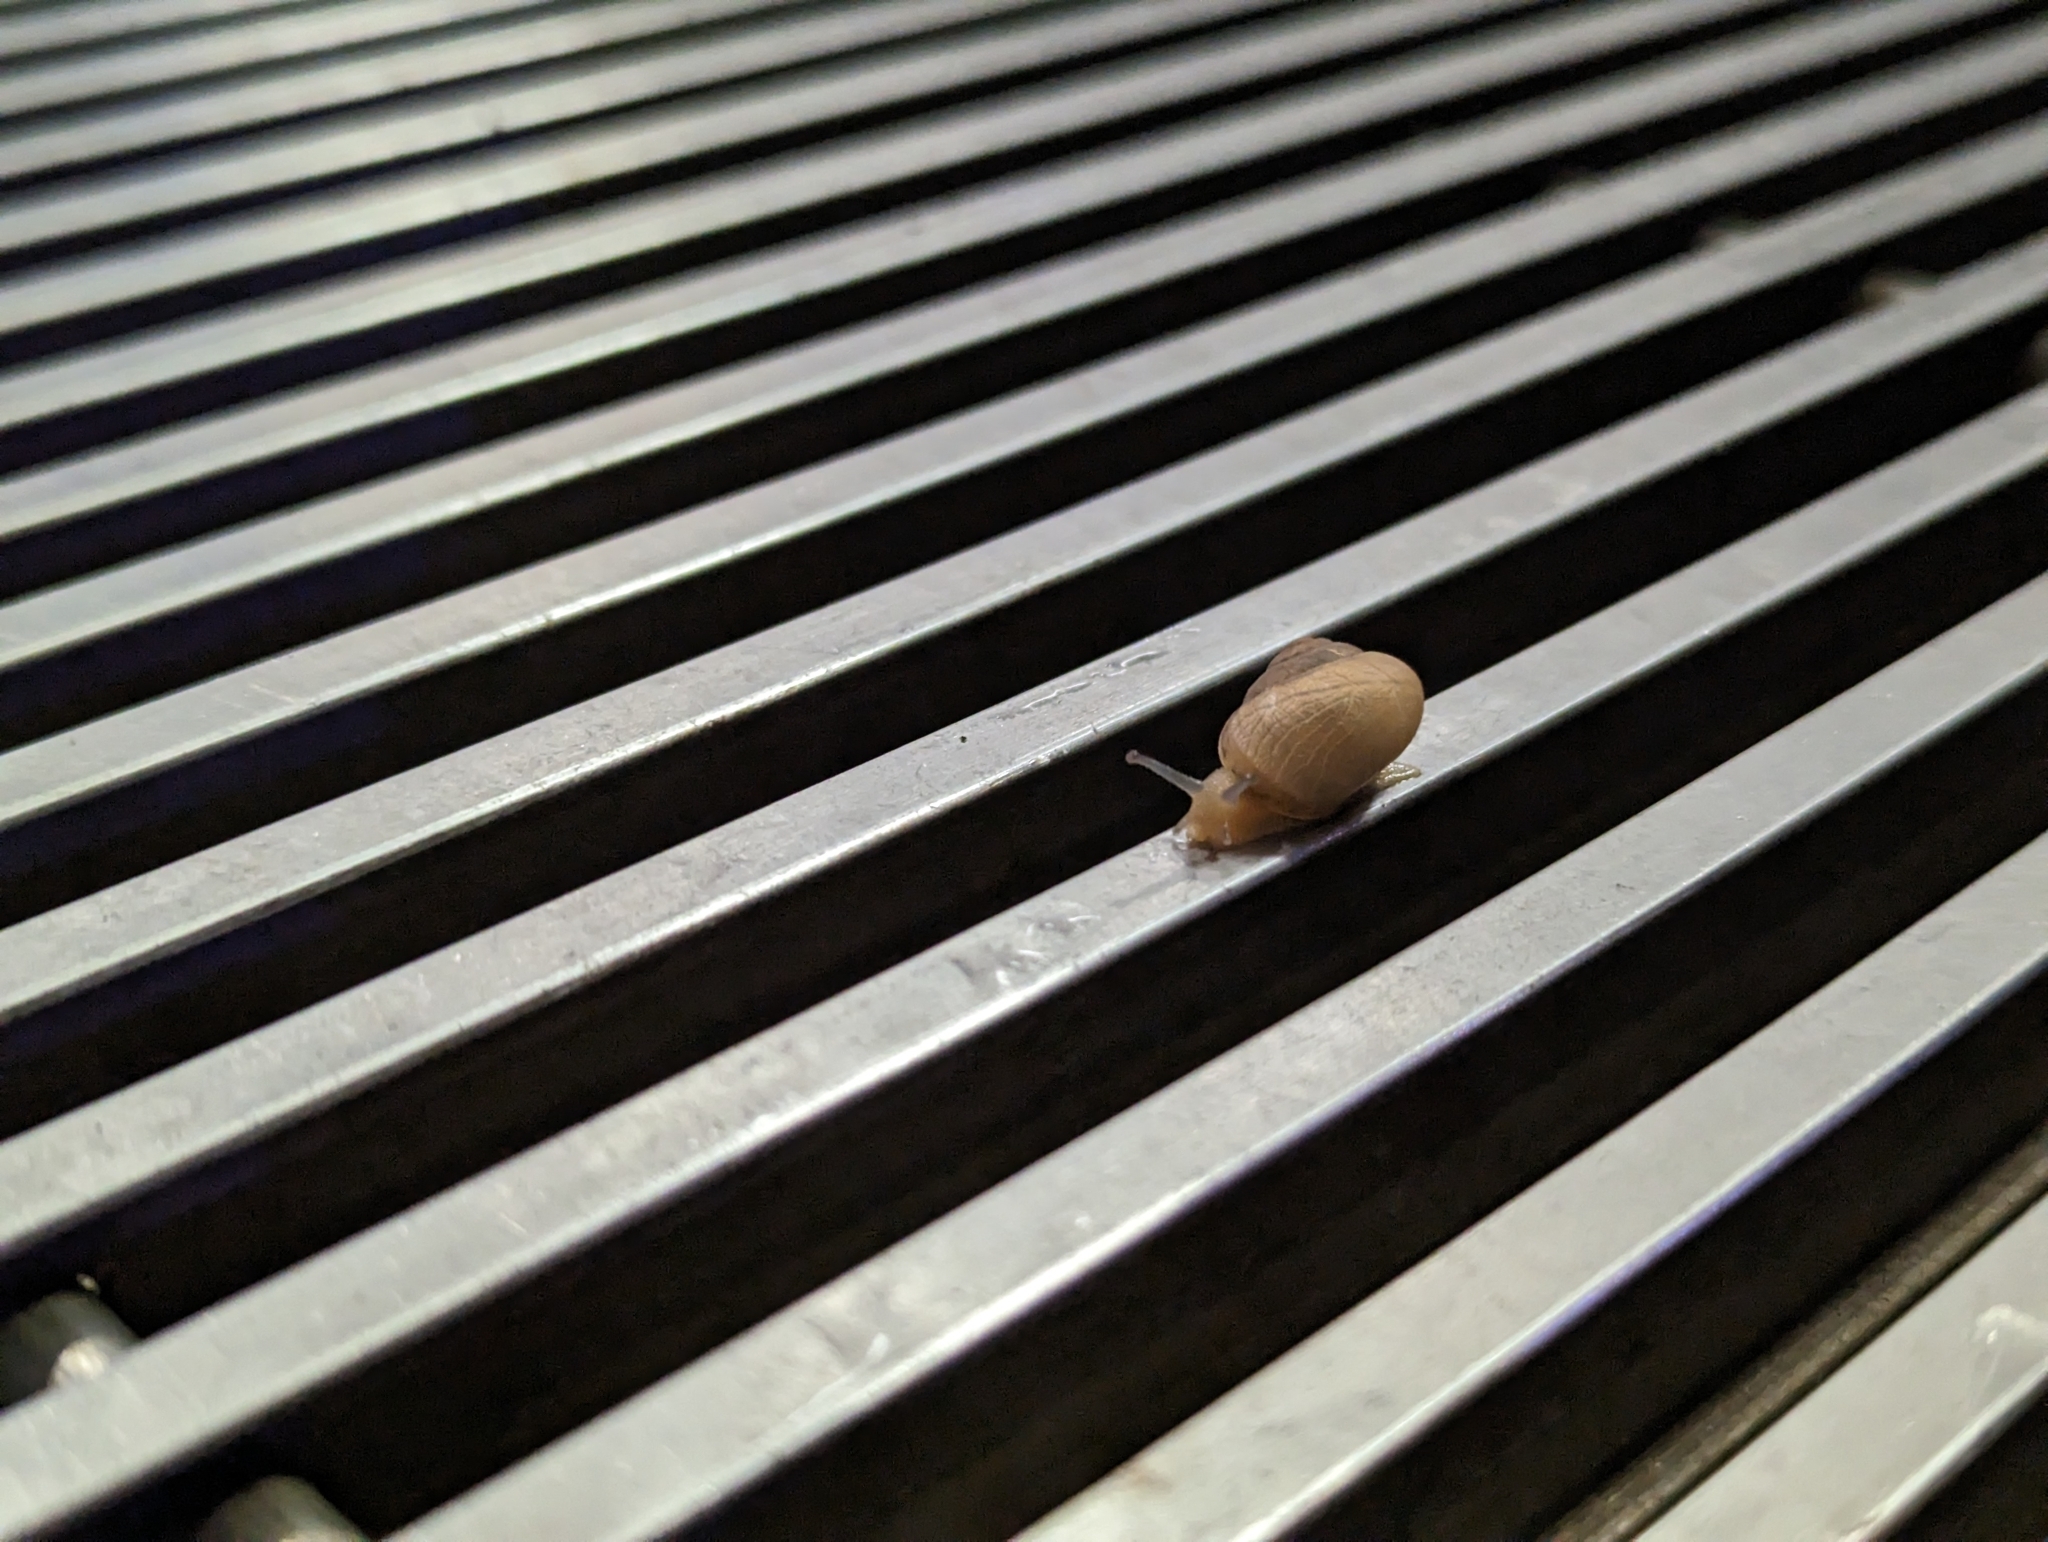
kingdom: Animalia
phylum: Mollusca
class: Gastropoda
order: Stylommatophora
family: Camaenidae
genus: Acusta
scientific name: Acusta despecta
